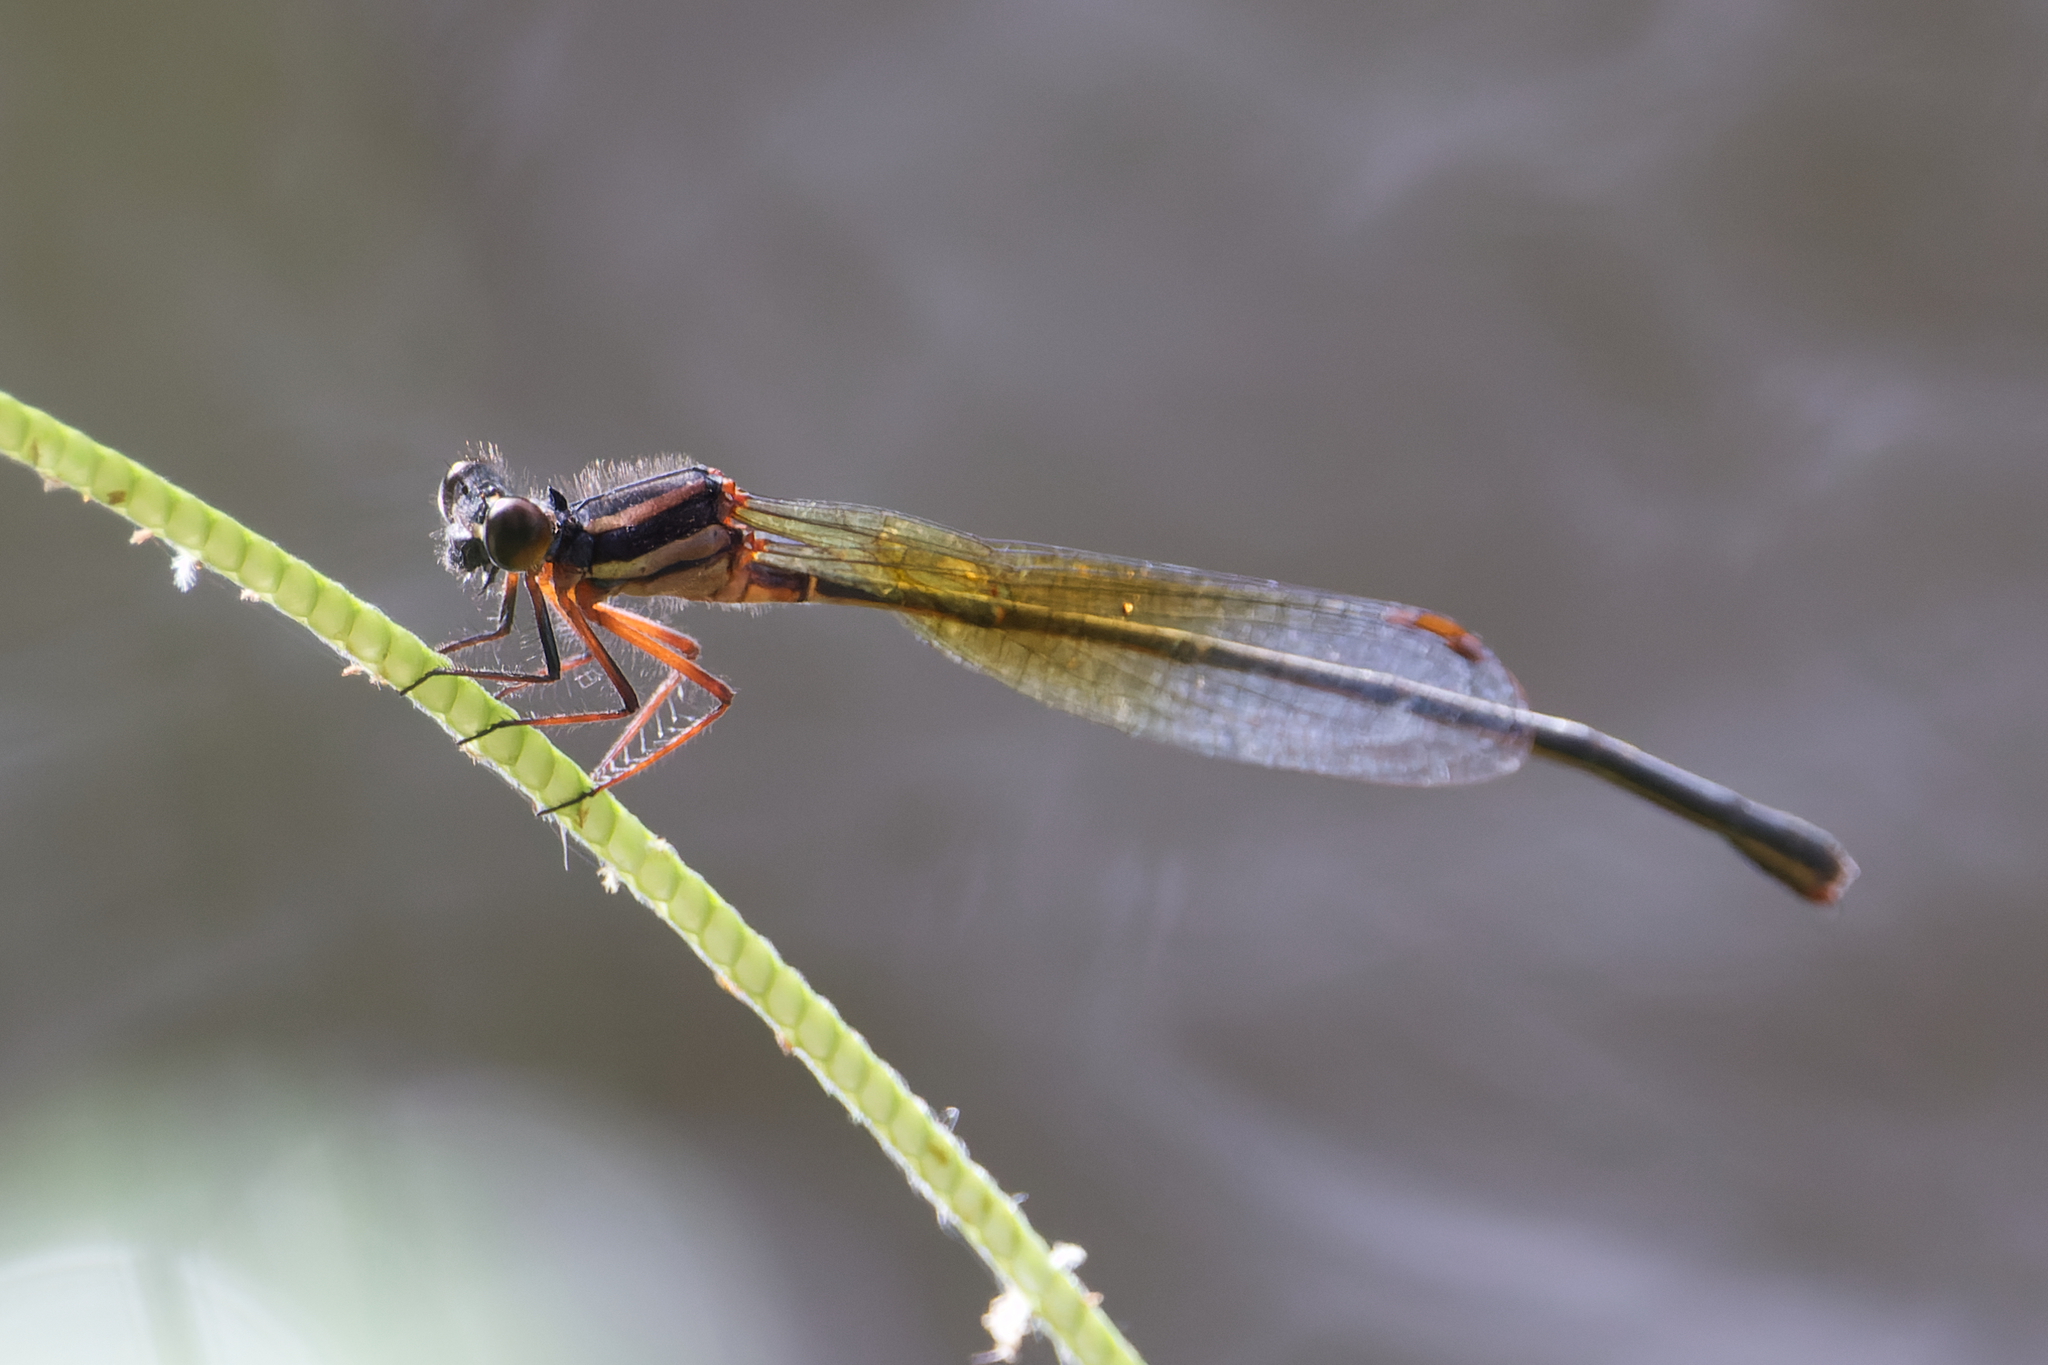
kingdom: Animalia
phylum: Arthropoda
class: Insecta
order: Odonata
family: Platycnemididae
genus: Nososticta
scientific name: Nososticta solida
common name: Orange threadtail
